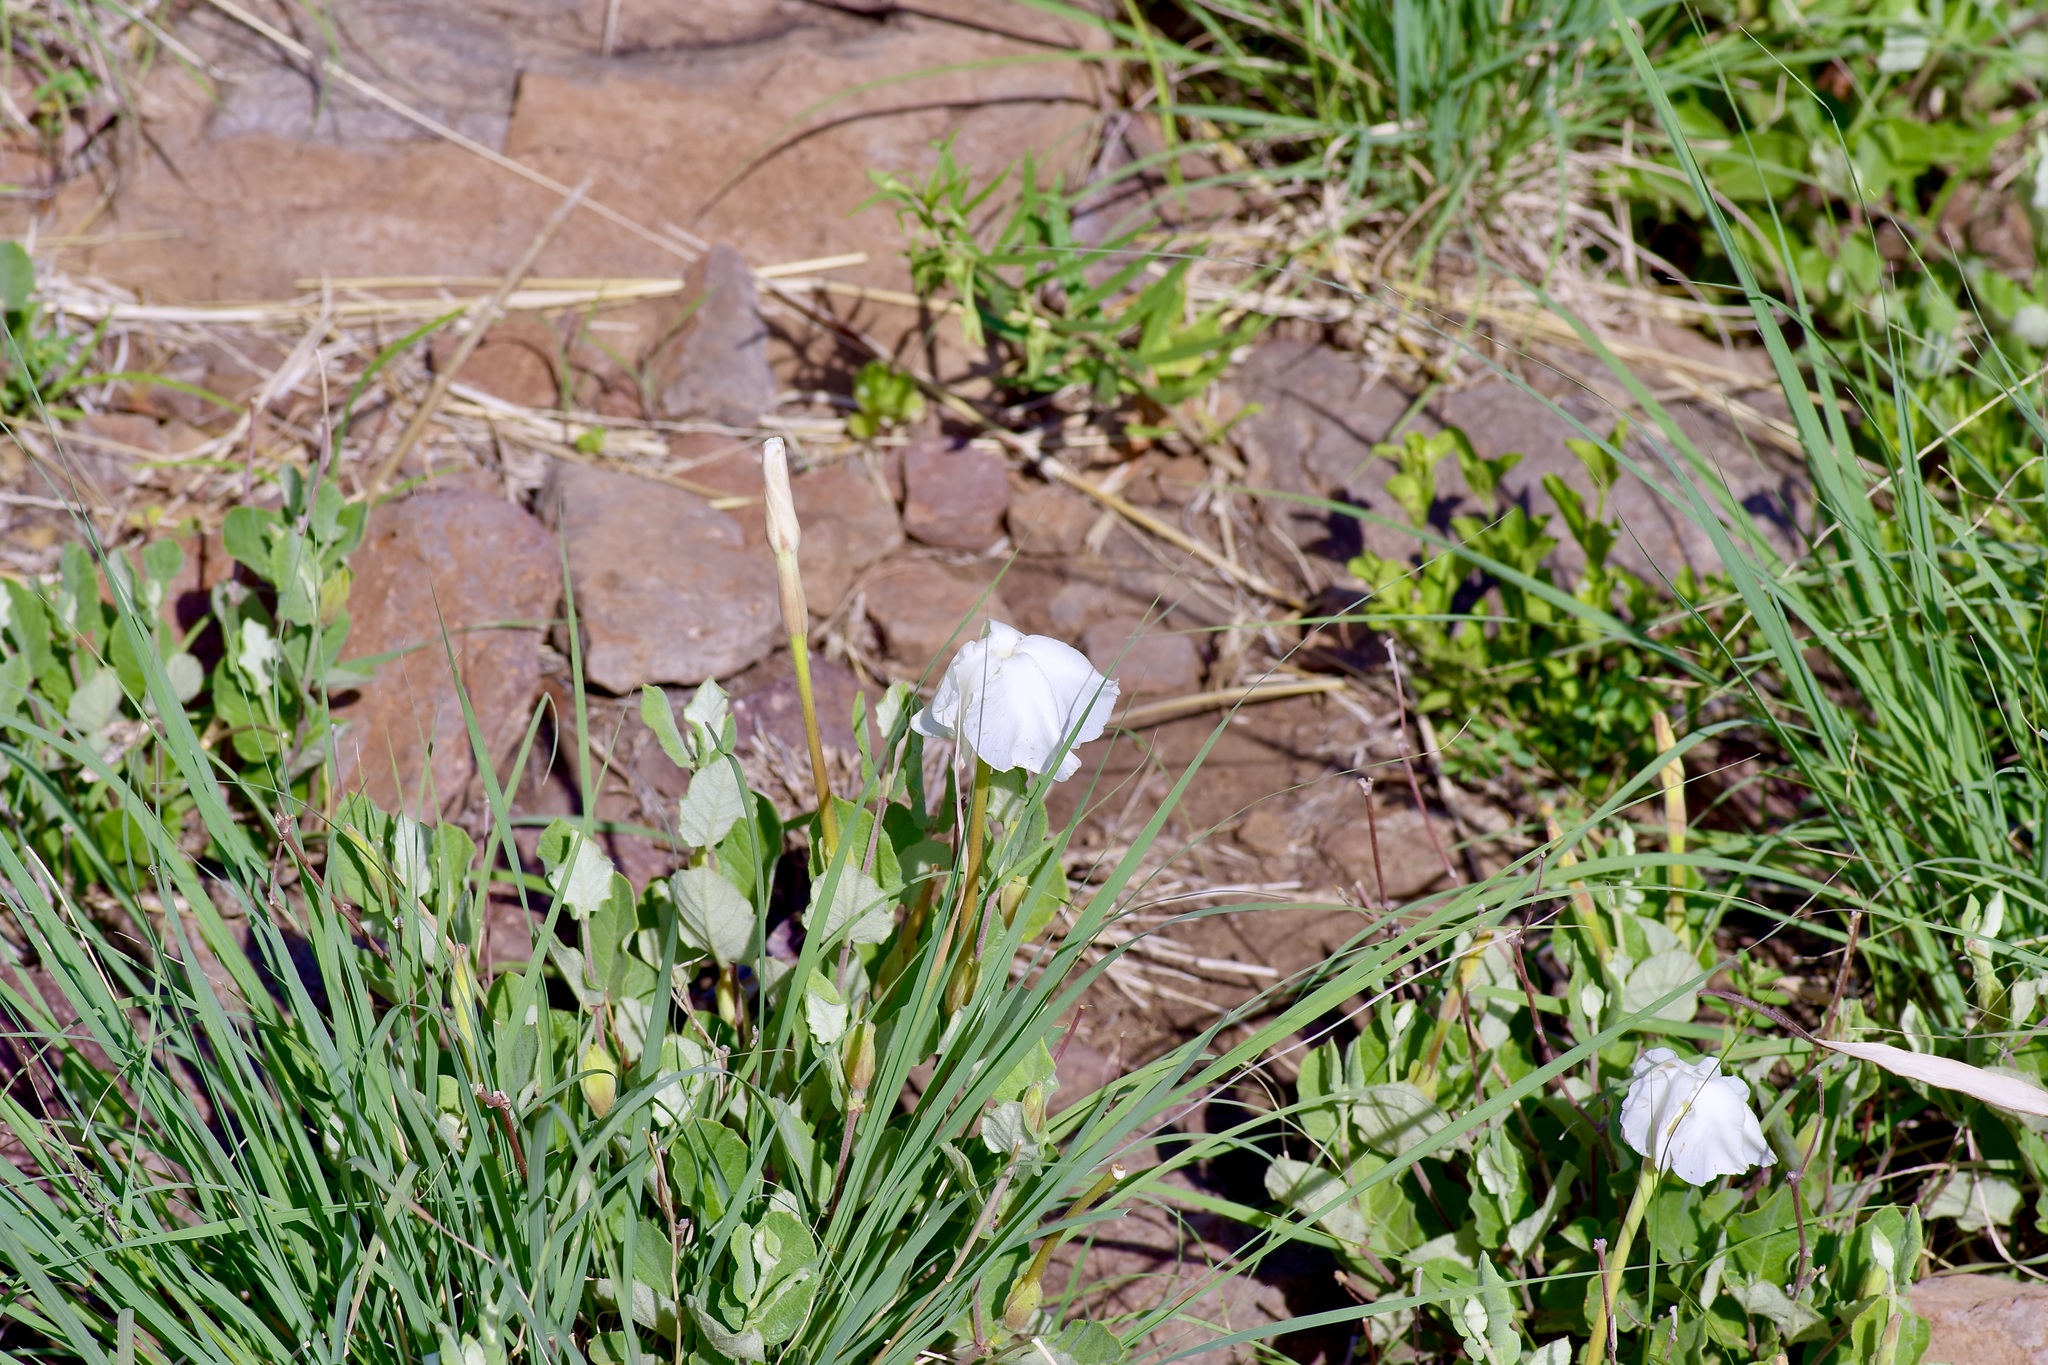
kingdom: Plantae
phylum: Tracheophyta
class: Magnoliopsida
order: Gentianales
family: Apocynaceae
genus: Mandevilla
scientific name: Mandevilla macrosiphon
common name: Plateau rocktrumpet
